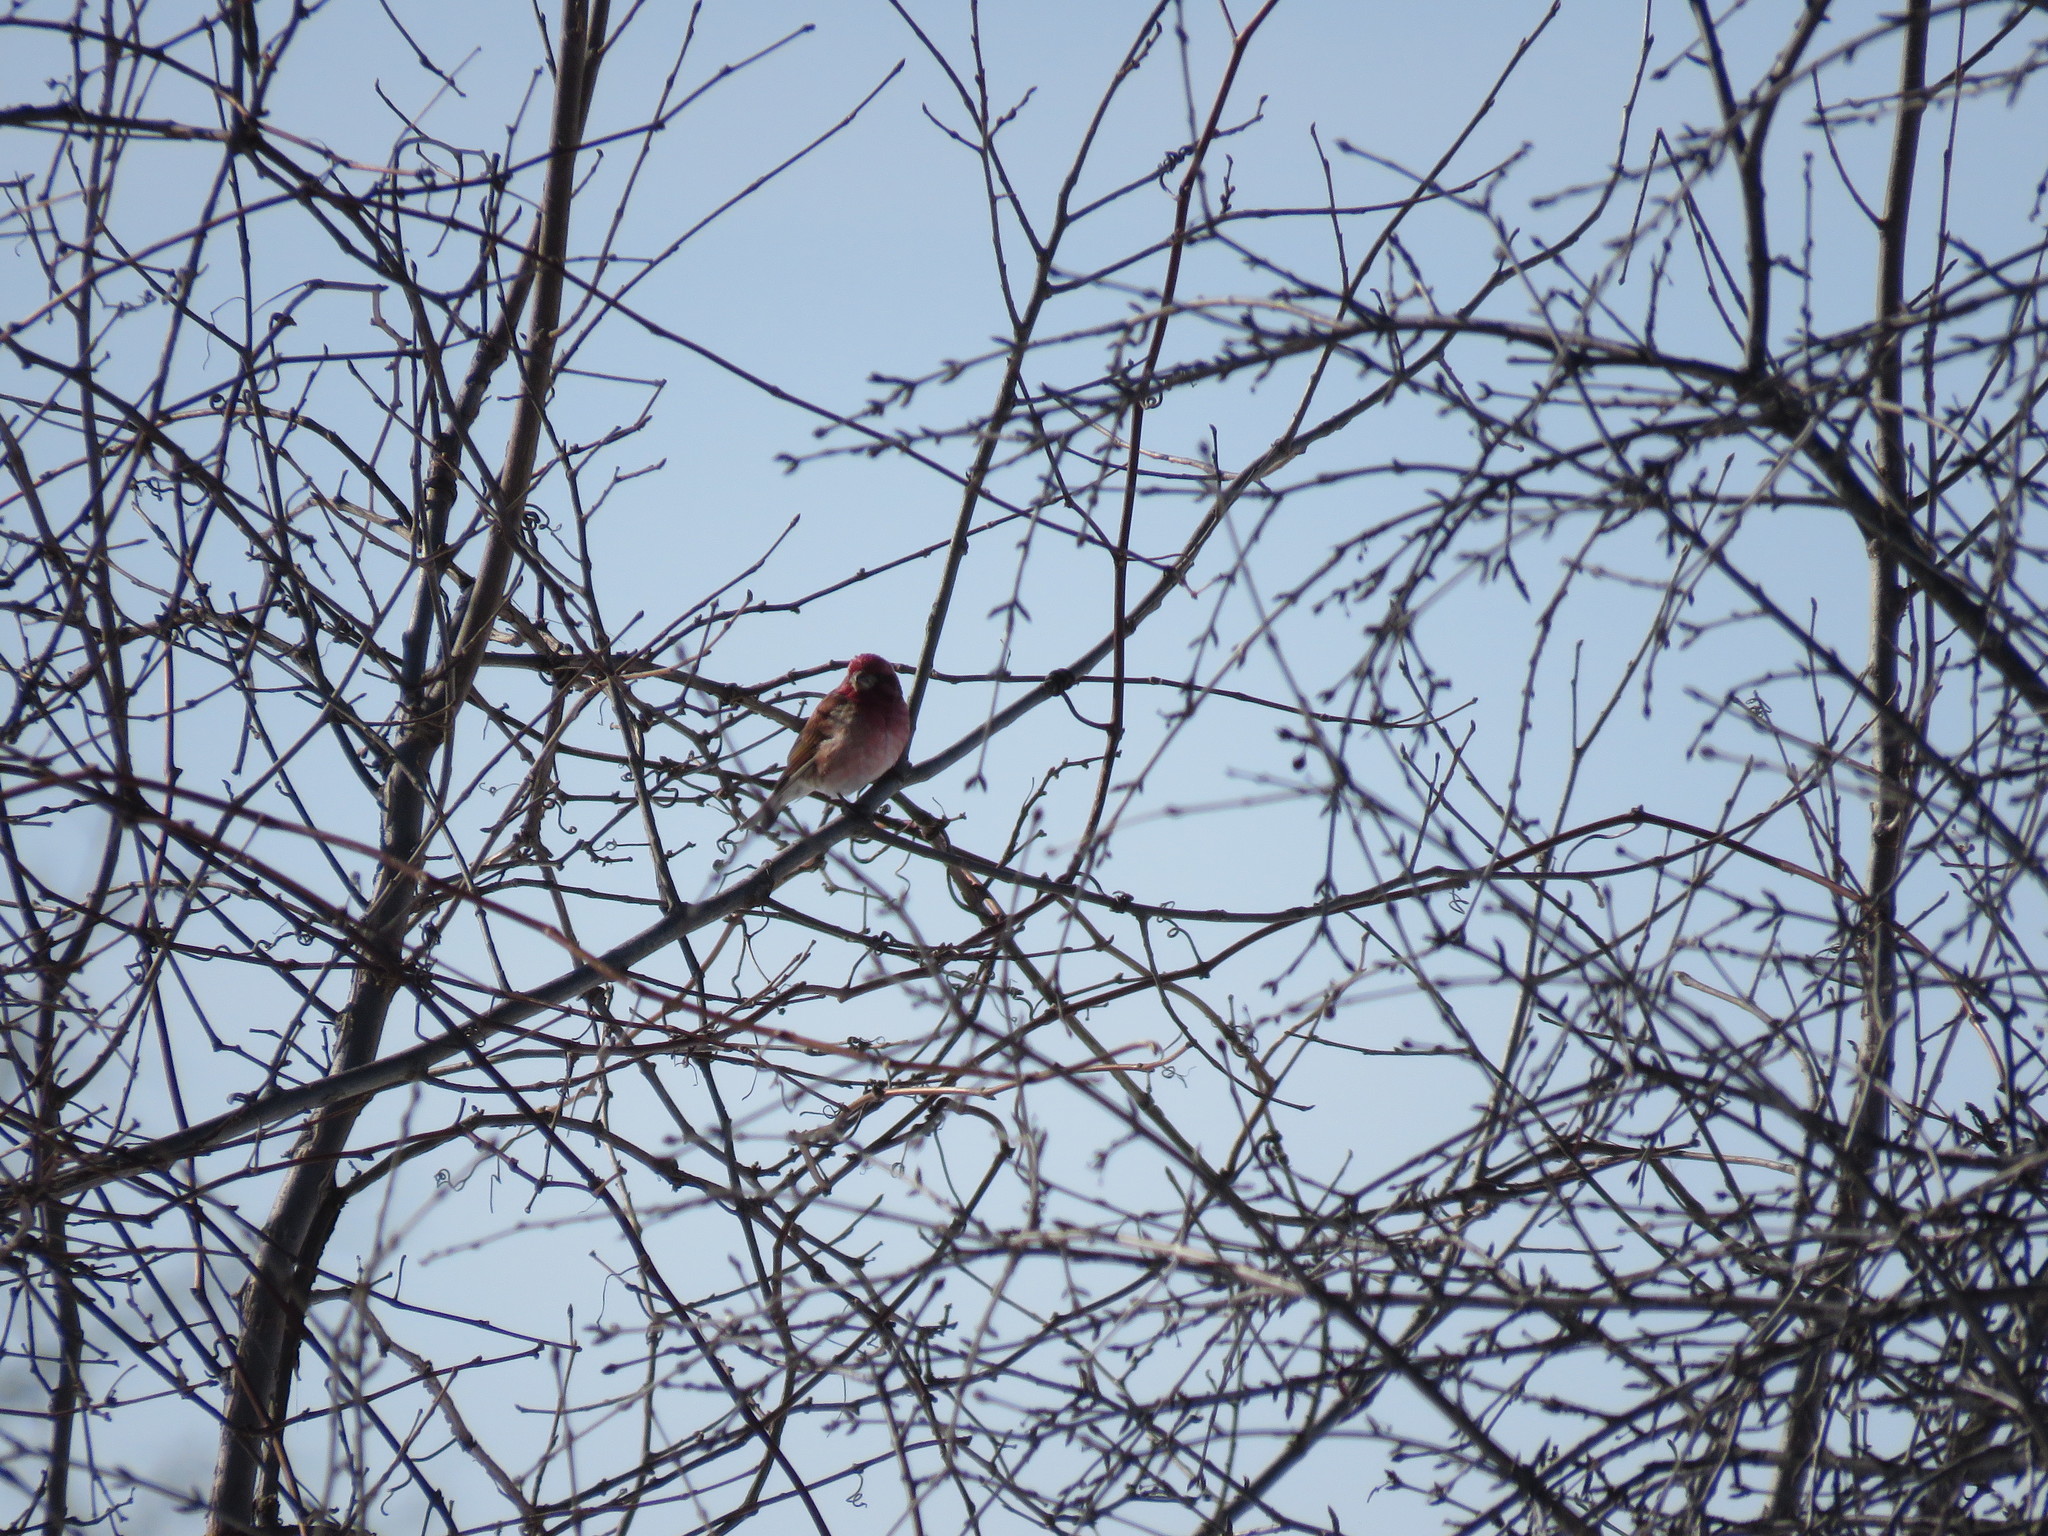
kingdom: Animalia
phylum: Chordata
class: Aves
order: Passeriformes
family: Fringillidae
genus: Haemorhous
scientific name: Haemorhous purpureus
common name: Purple finch
